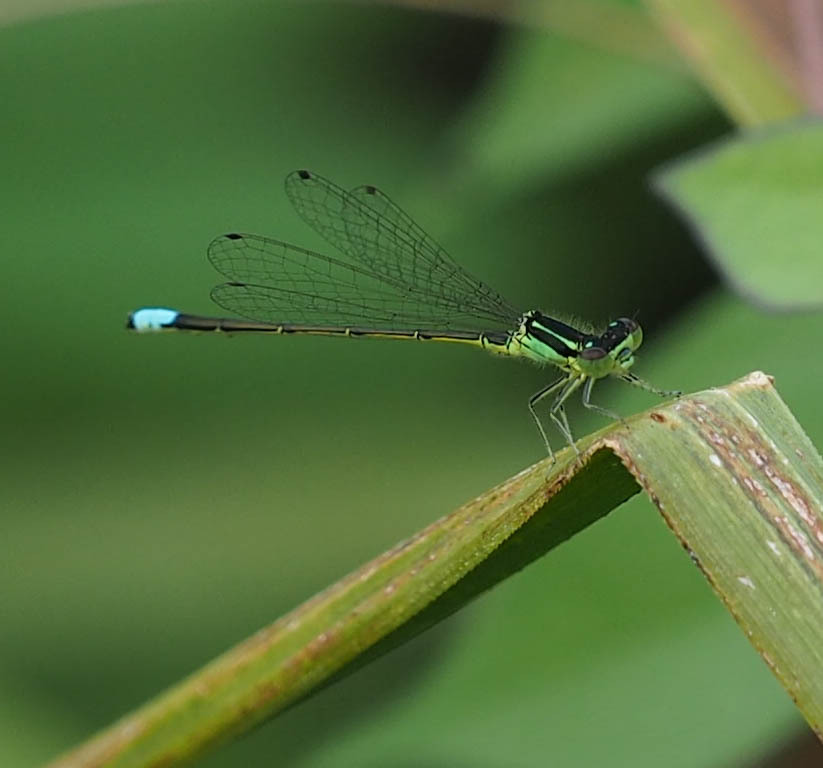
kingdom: Animalia
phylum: Arthropoda
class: Insecta
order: Odonata
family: Coenagrionidae
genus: Ischnura
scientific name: Ischnura verticalis
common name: Eastern forktail
